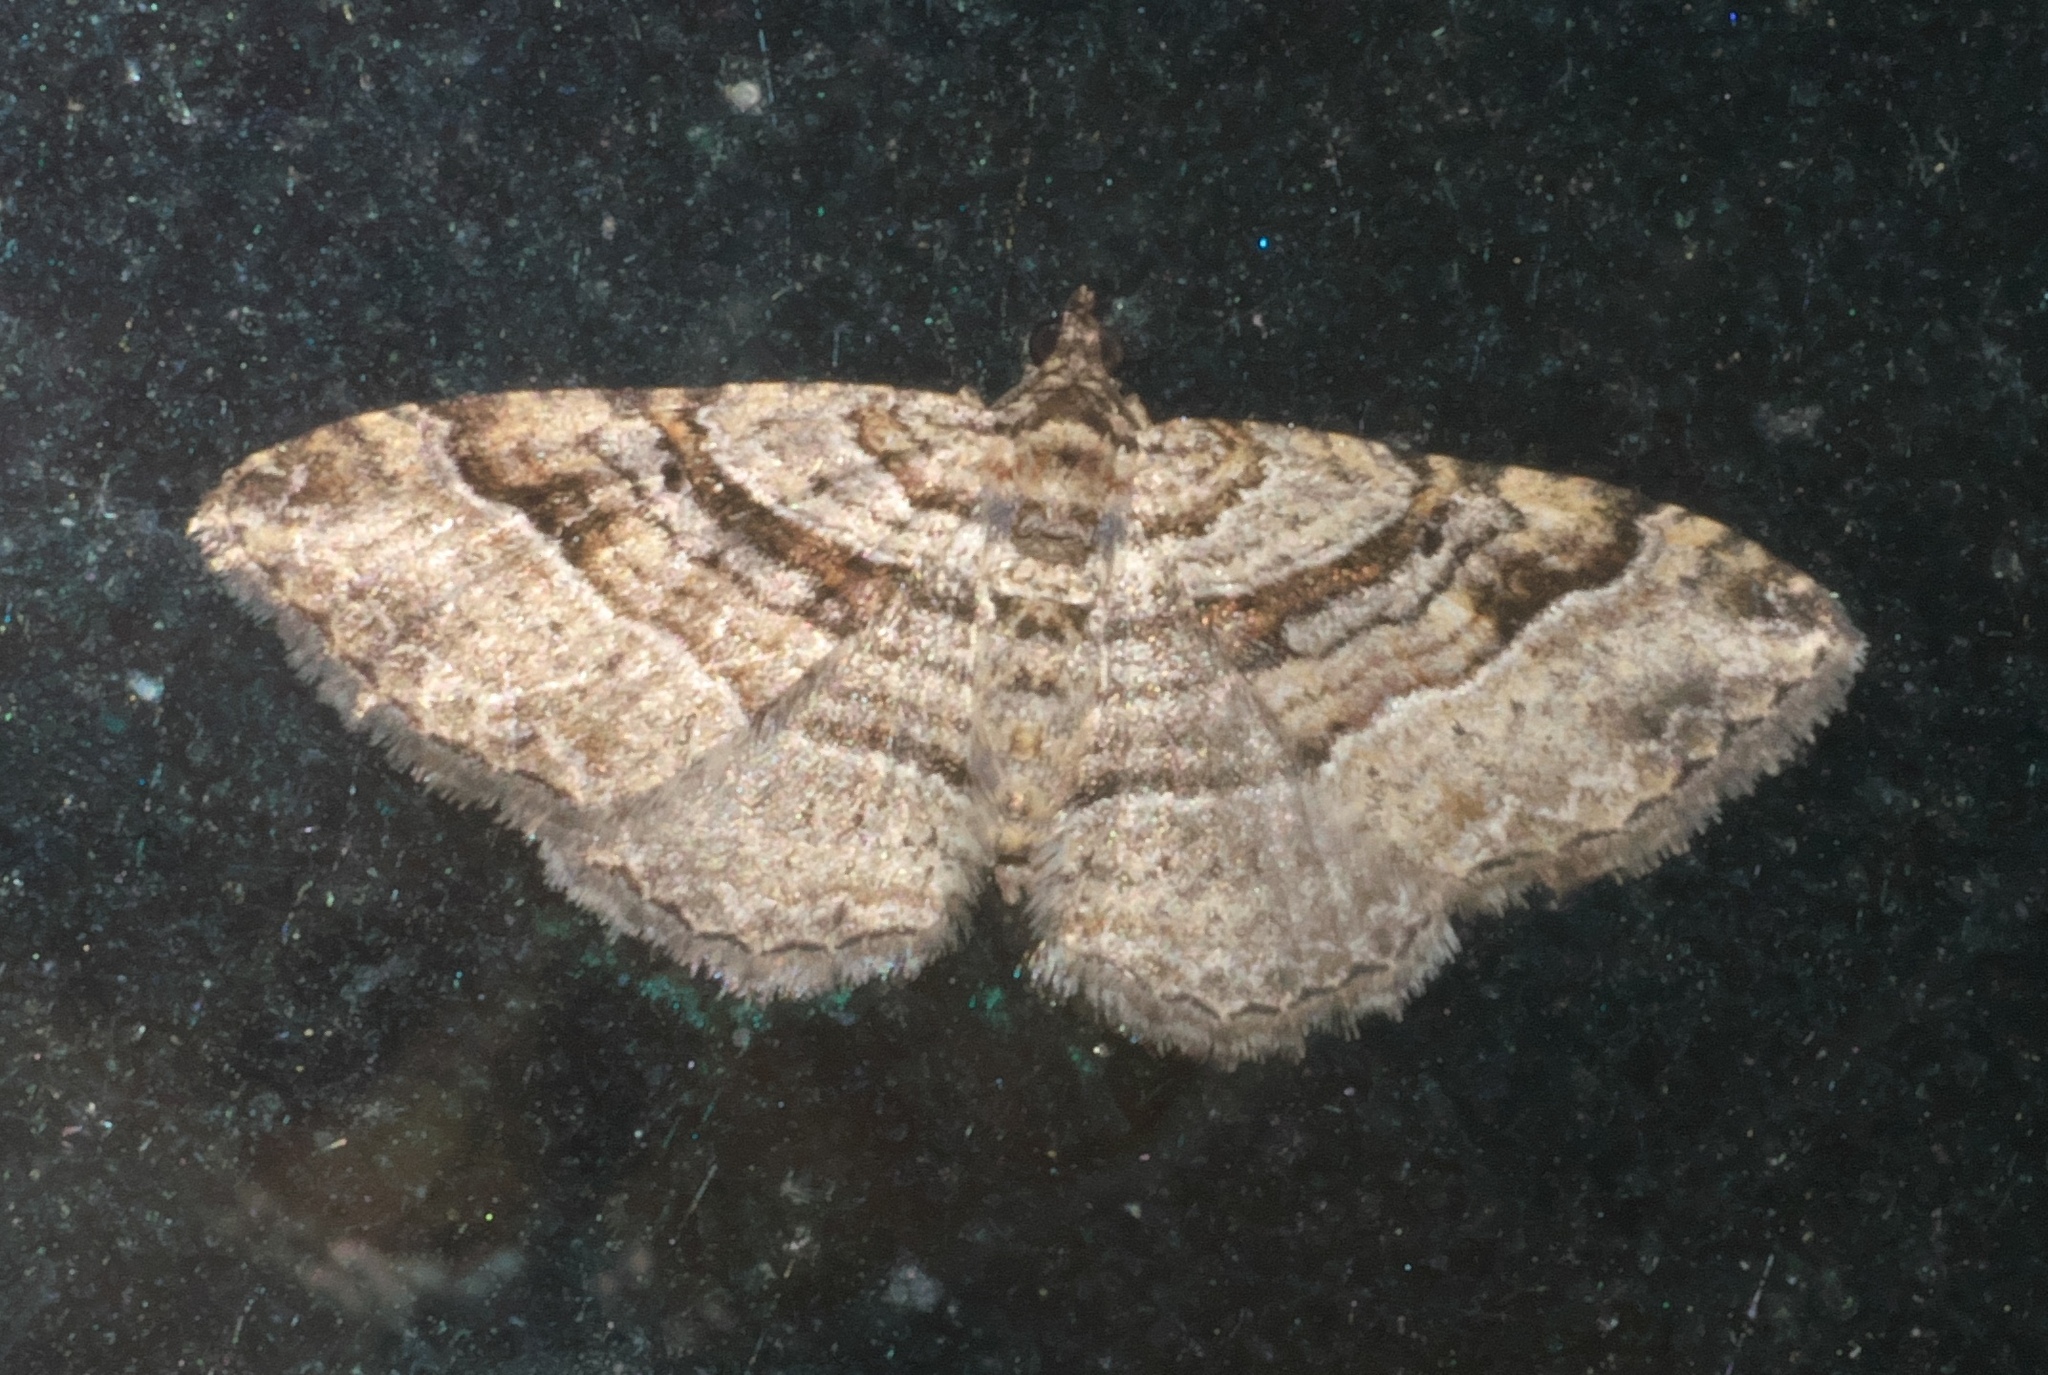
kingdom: Animalia
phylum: Arthropoda
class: Insecta
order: Lepidoptera
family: Geometridae
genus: Costaconvexa
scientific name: Costaconvexa centrostrigaria
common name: Bent-line carpet
